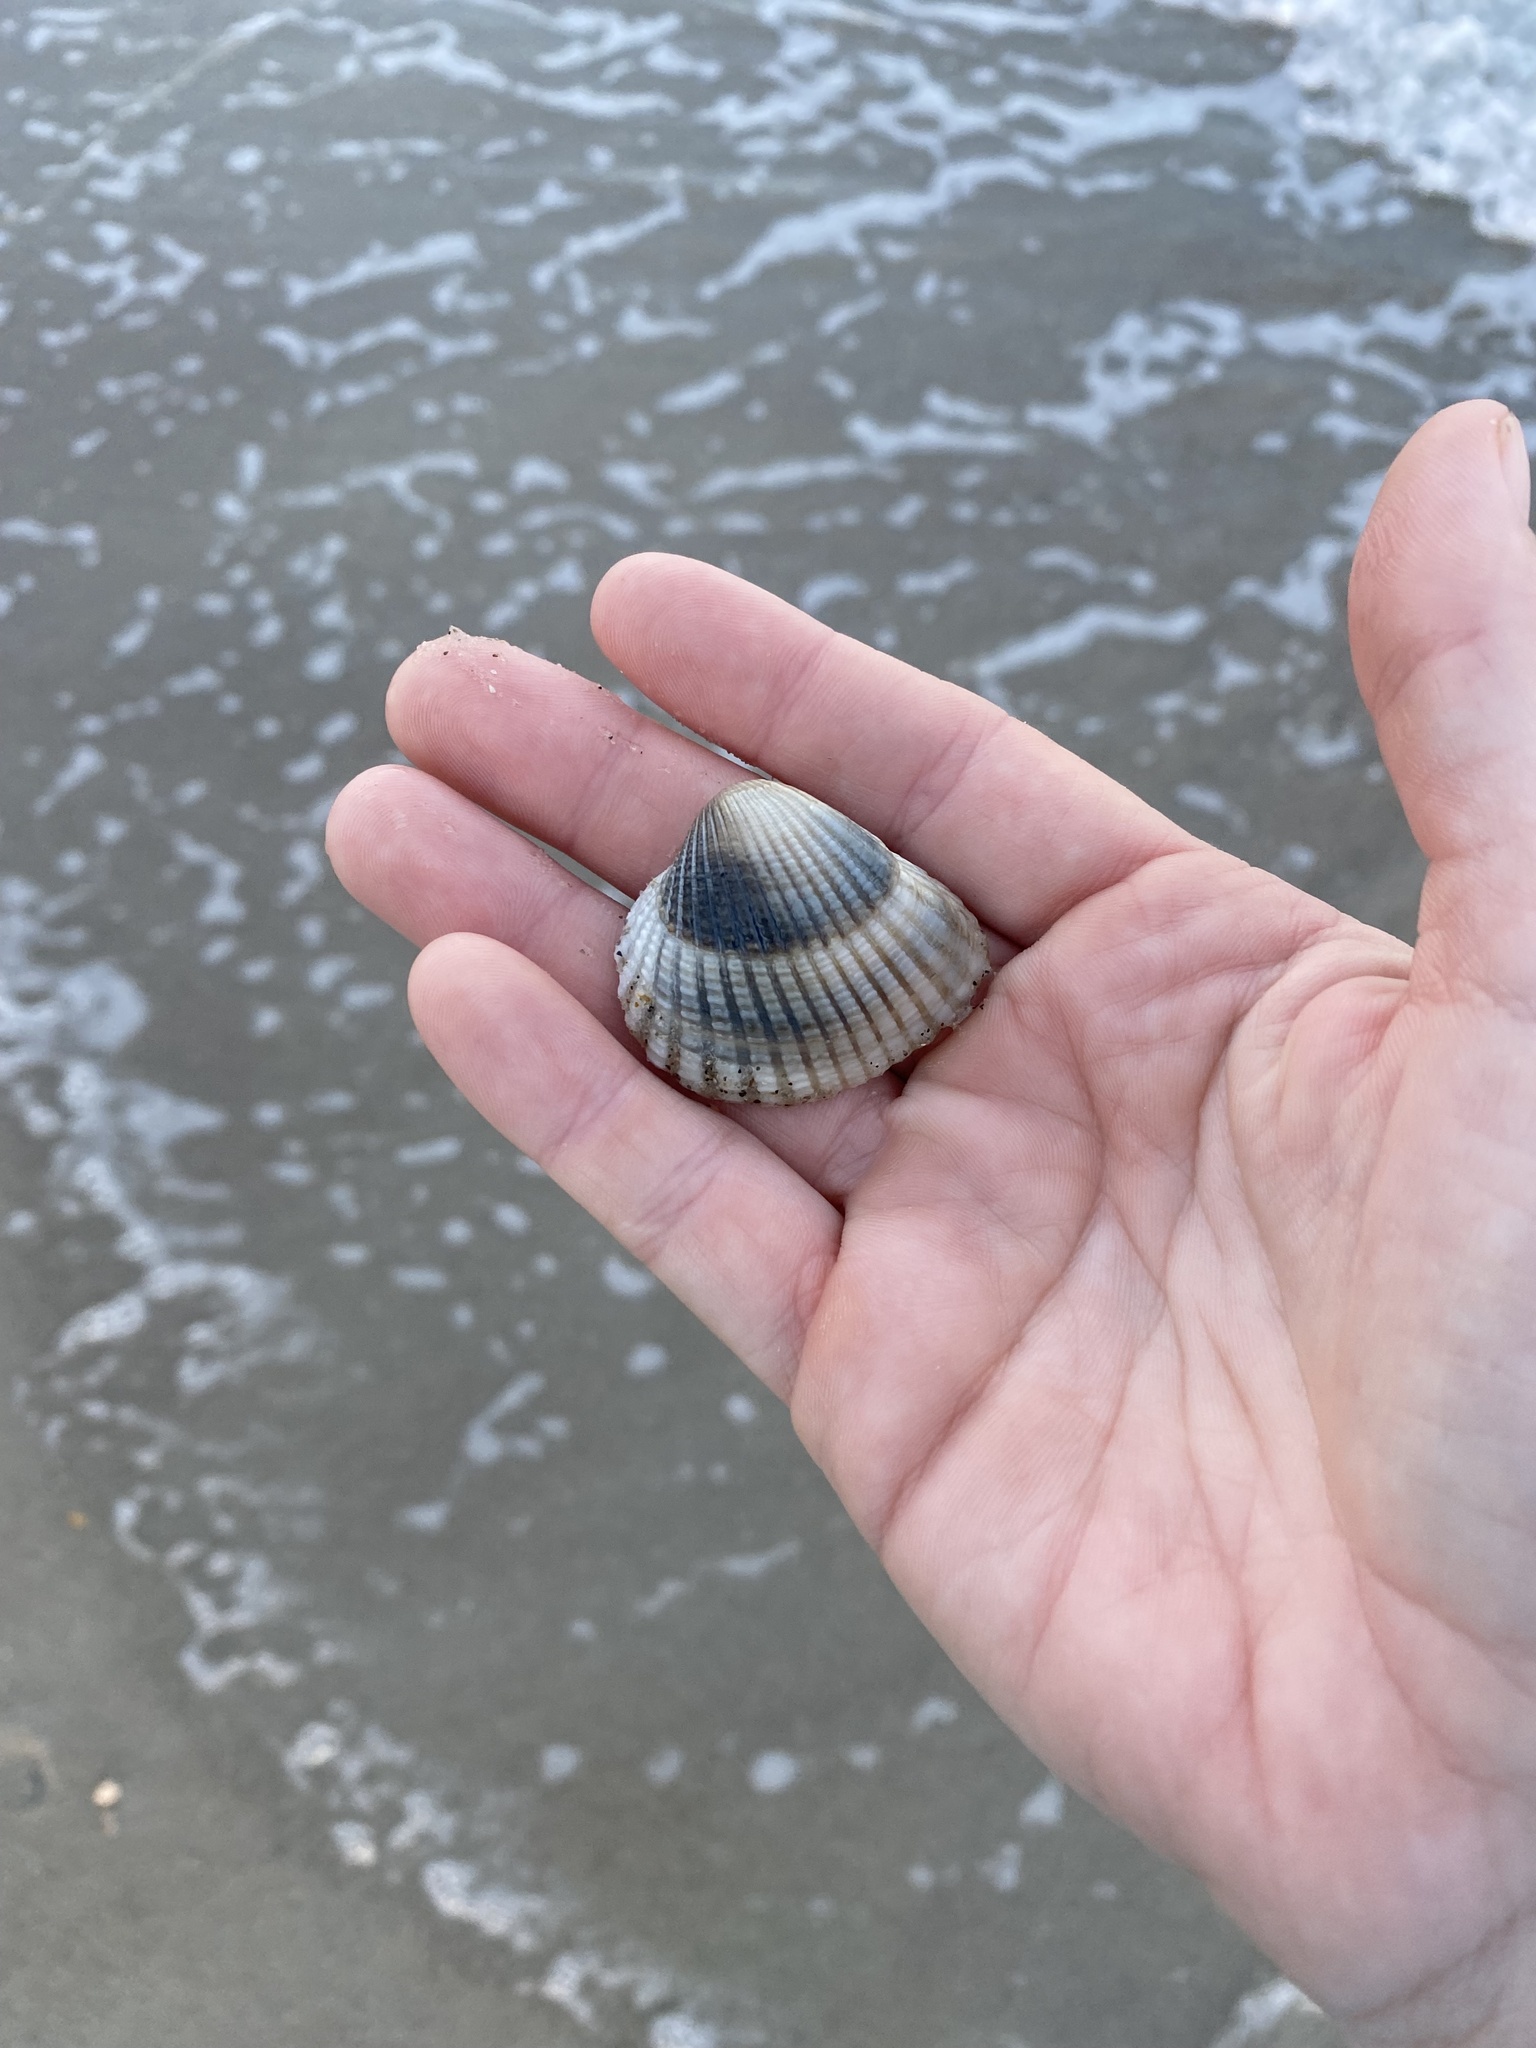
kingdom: Animalia
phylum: Mollusca
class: Bivalvia
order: Arcida
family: Arcidae
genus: Anadara
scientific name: Anadara brasiliana
